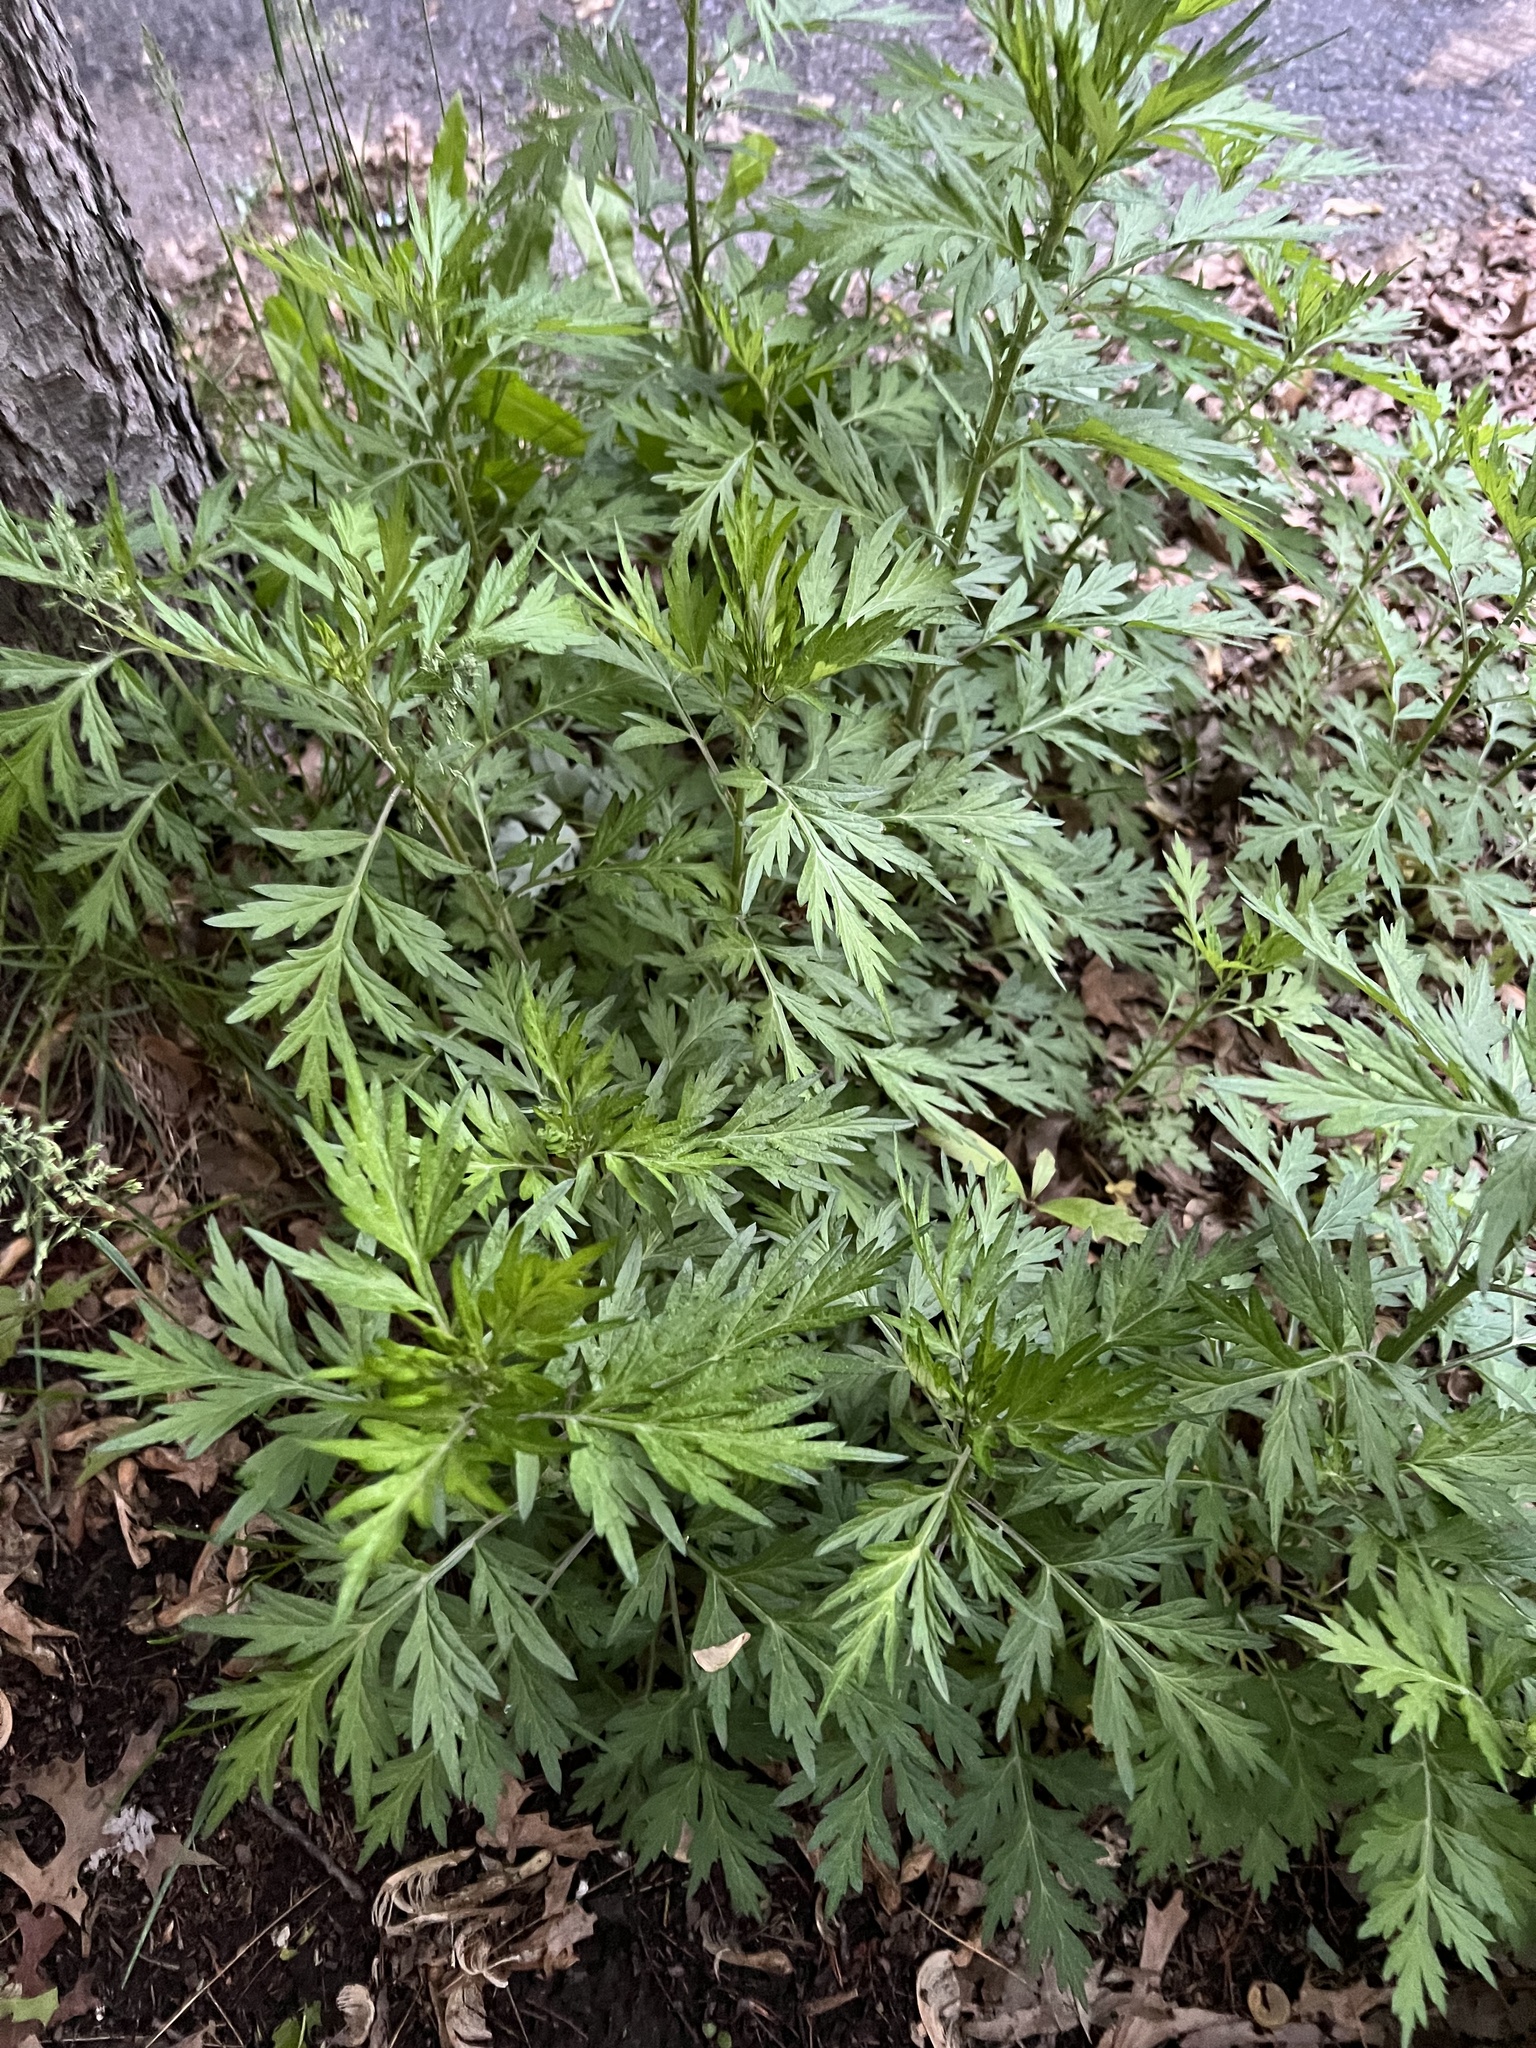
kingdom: Plantae
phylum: Tracheophyta
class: Magnoliopsida
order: Asterales
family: Asteraceae
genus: Artemisia
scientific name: Artemisia vulgaris
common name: Mugwort
